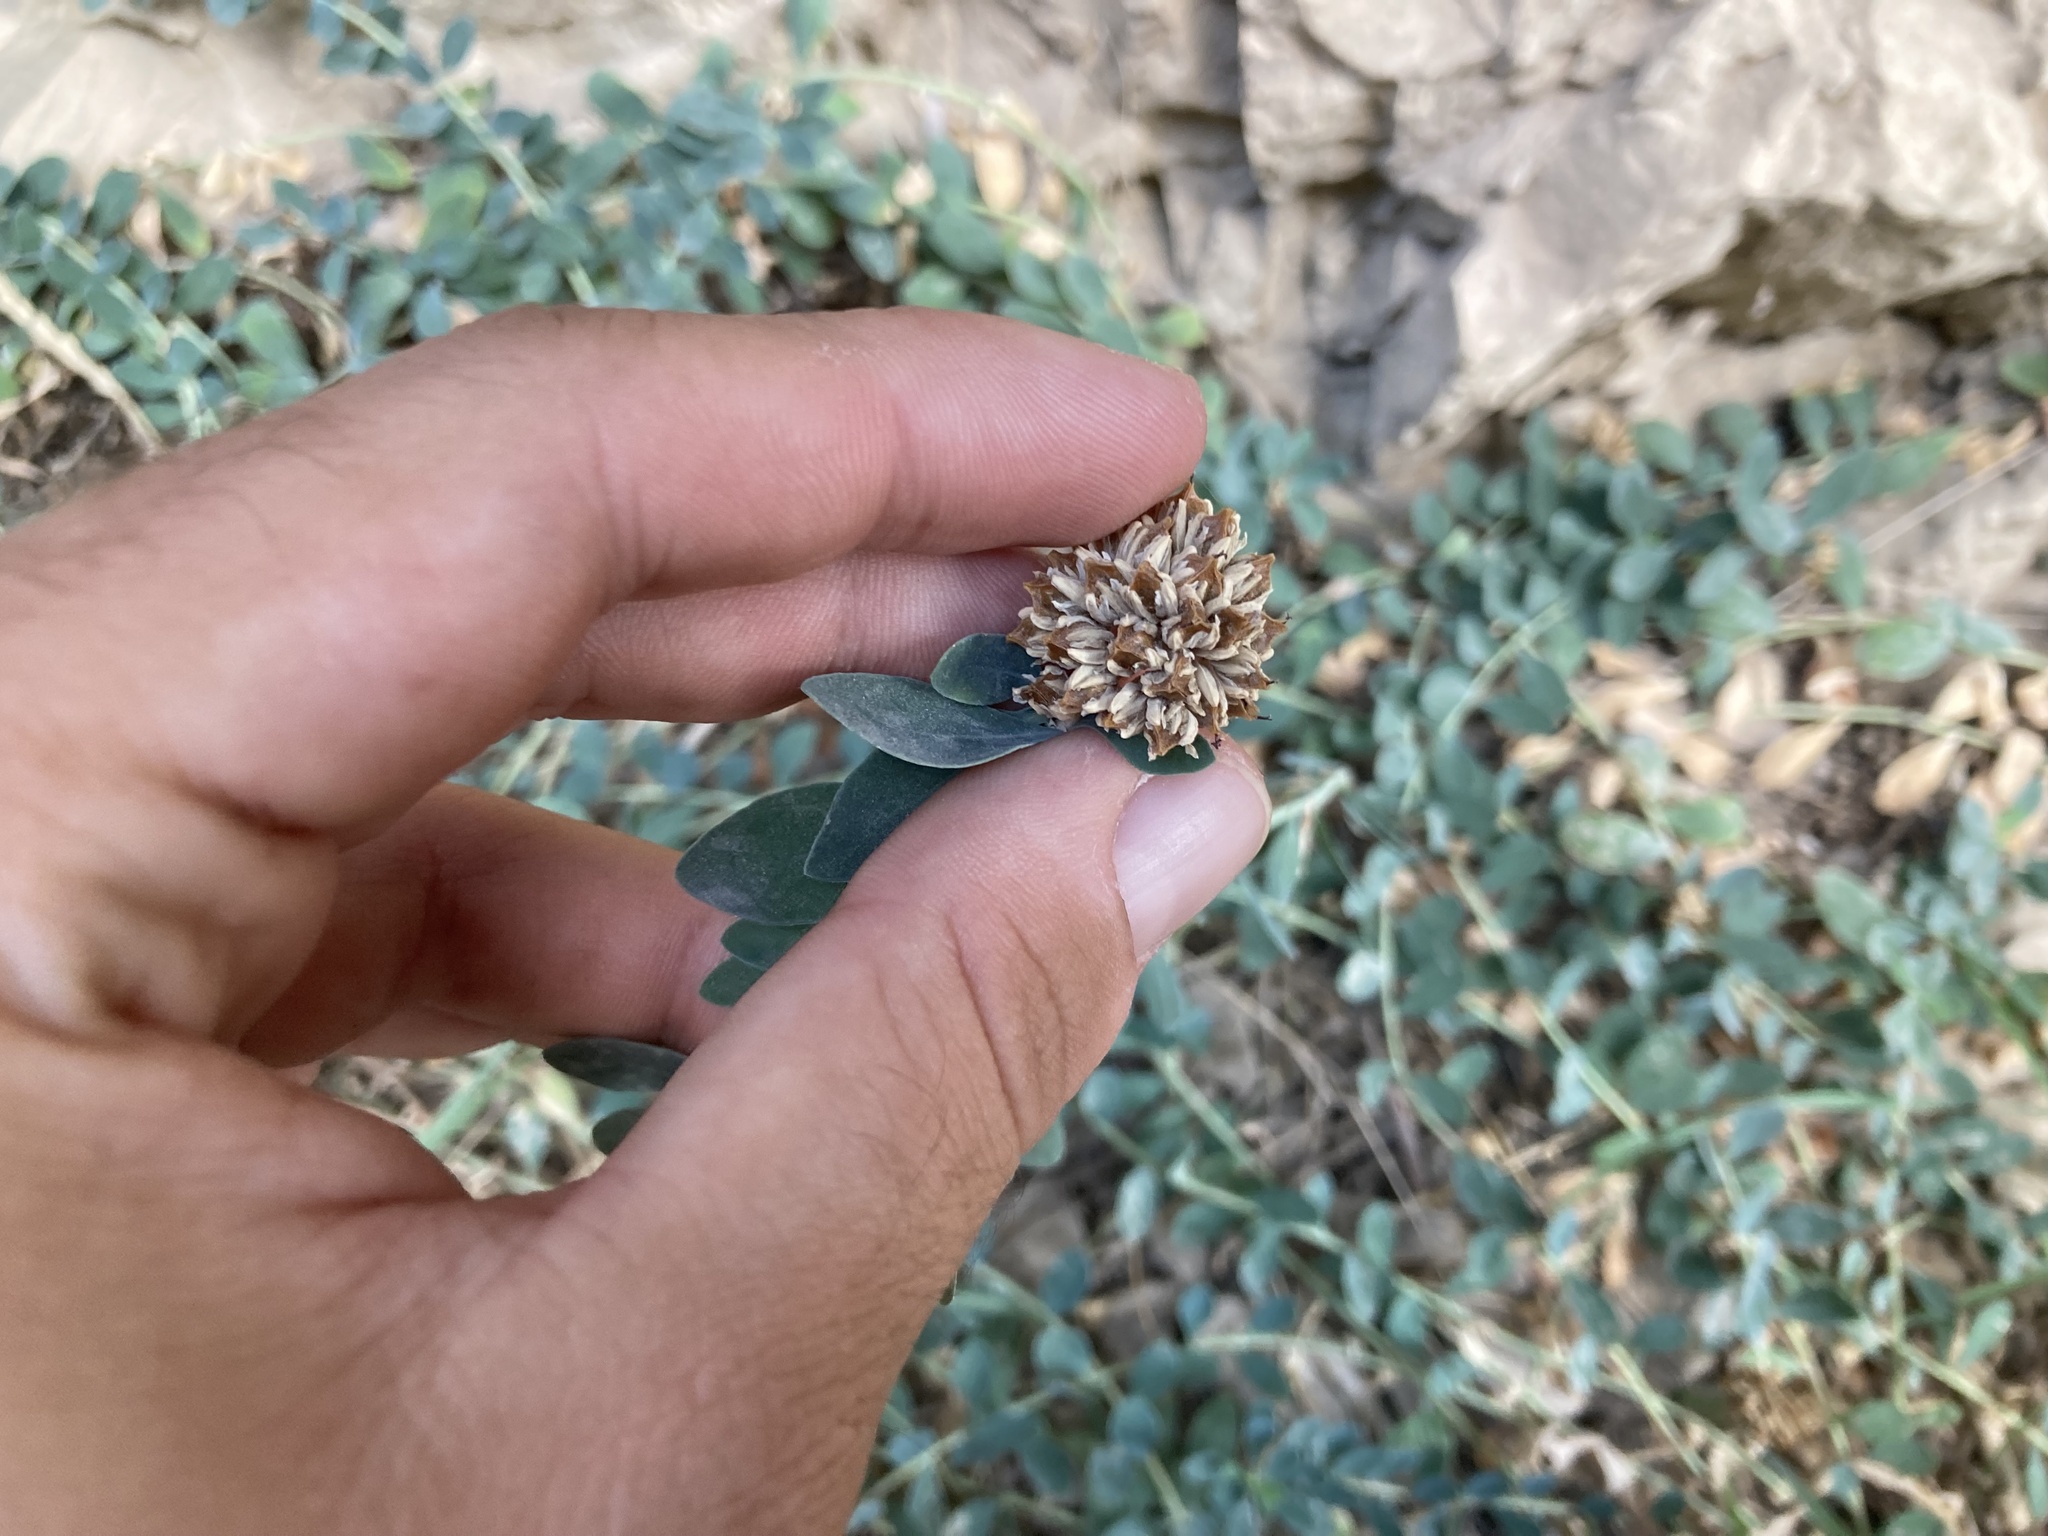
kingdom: Plantae
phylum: Tracheophyta
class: Magnoliopsida
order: Caryophyllales
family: Caryophyllaceae
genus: Telephium
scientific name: Telephium imperati
